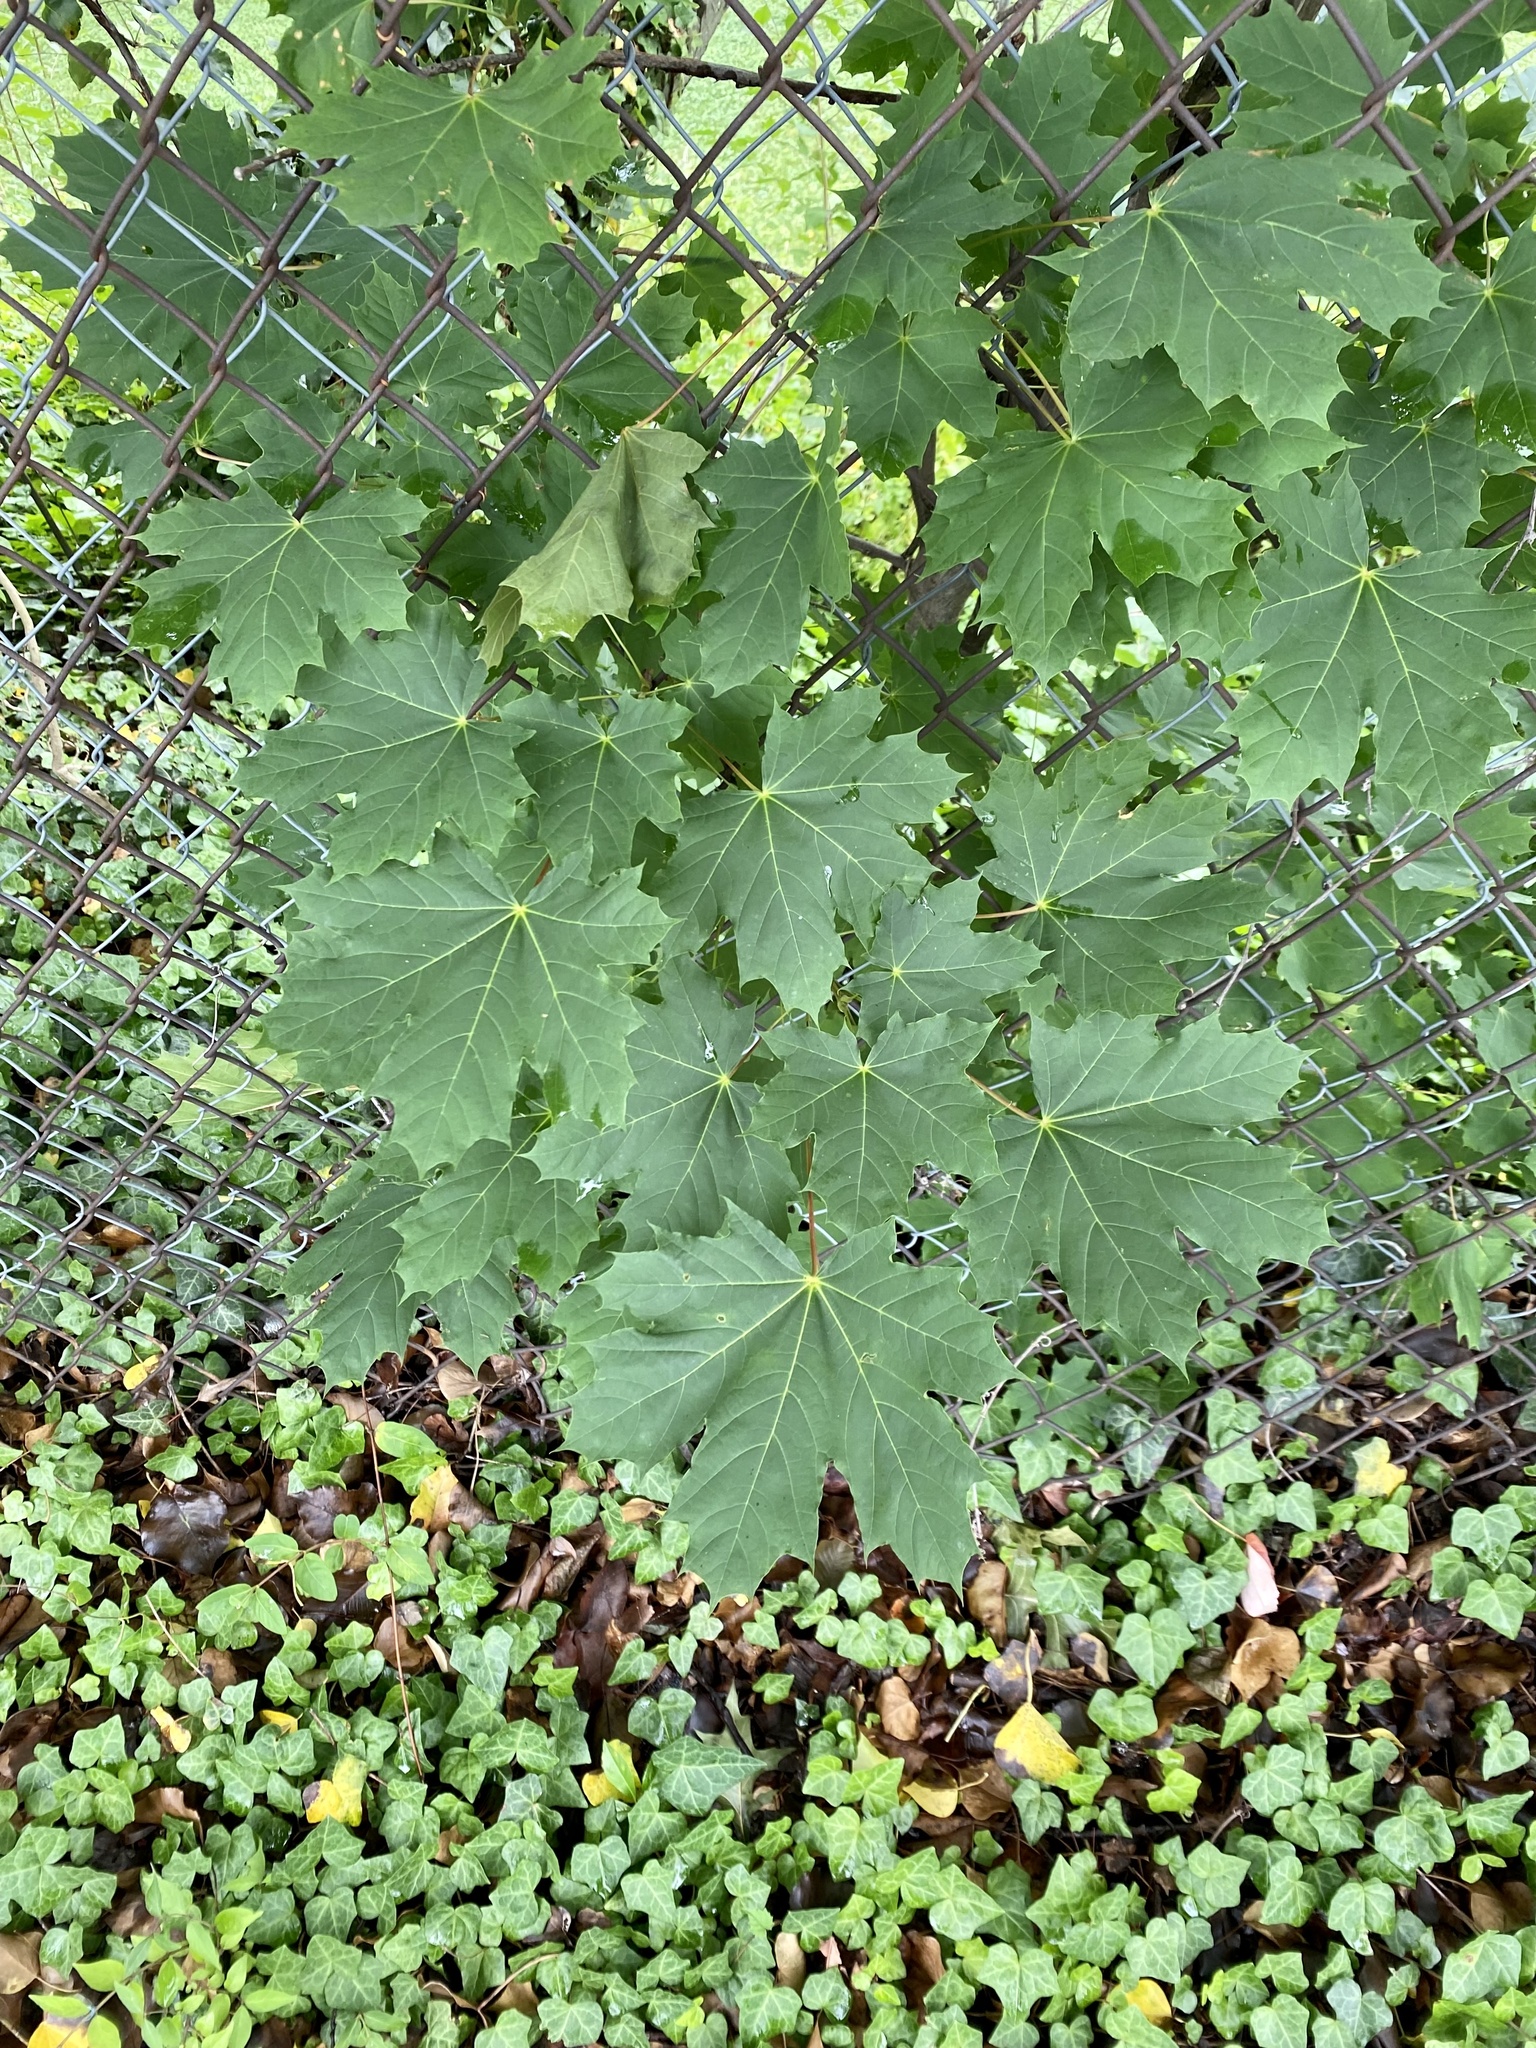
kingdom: Plantae
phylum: Tracheophyta
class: Magnoliopsida
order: Sapindales
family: Sapindaceae
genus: Acer
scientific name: Acer platanoides
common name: Norway maple
